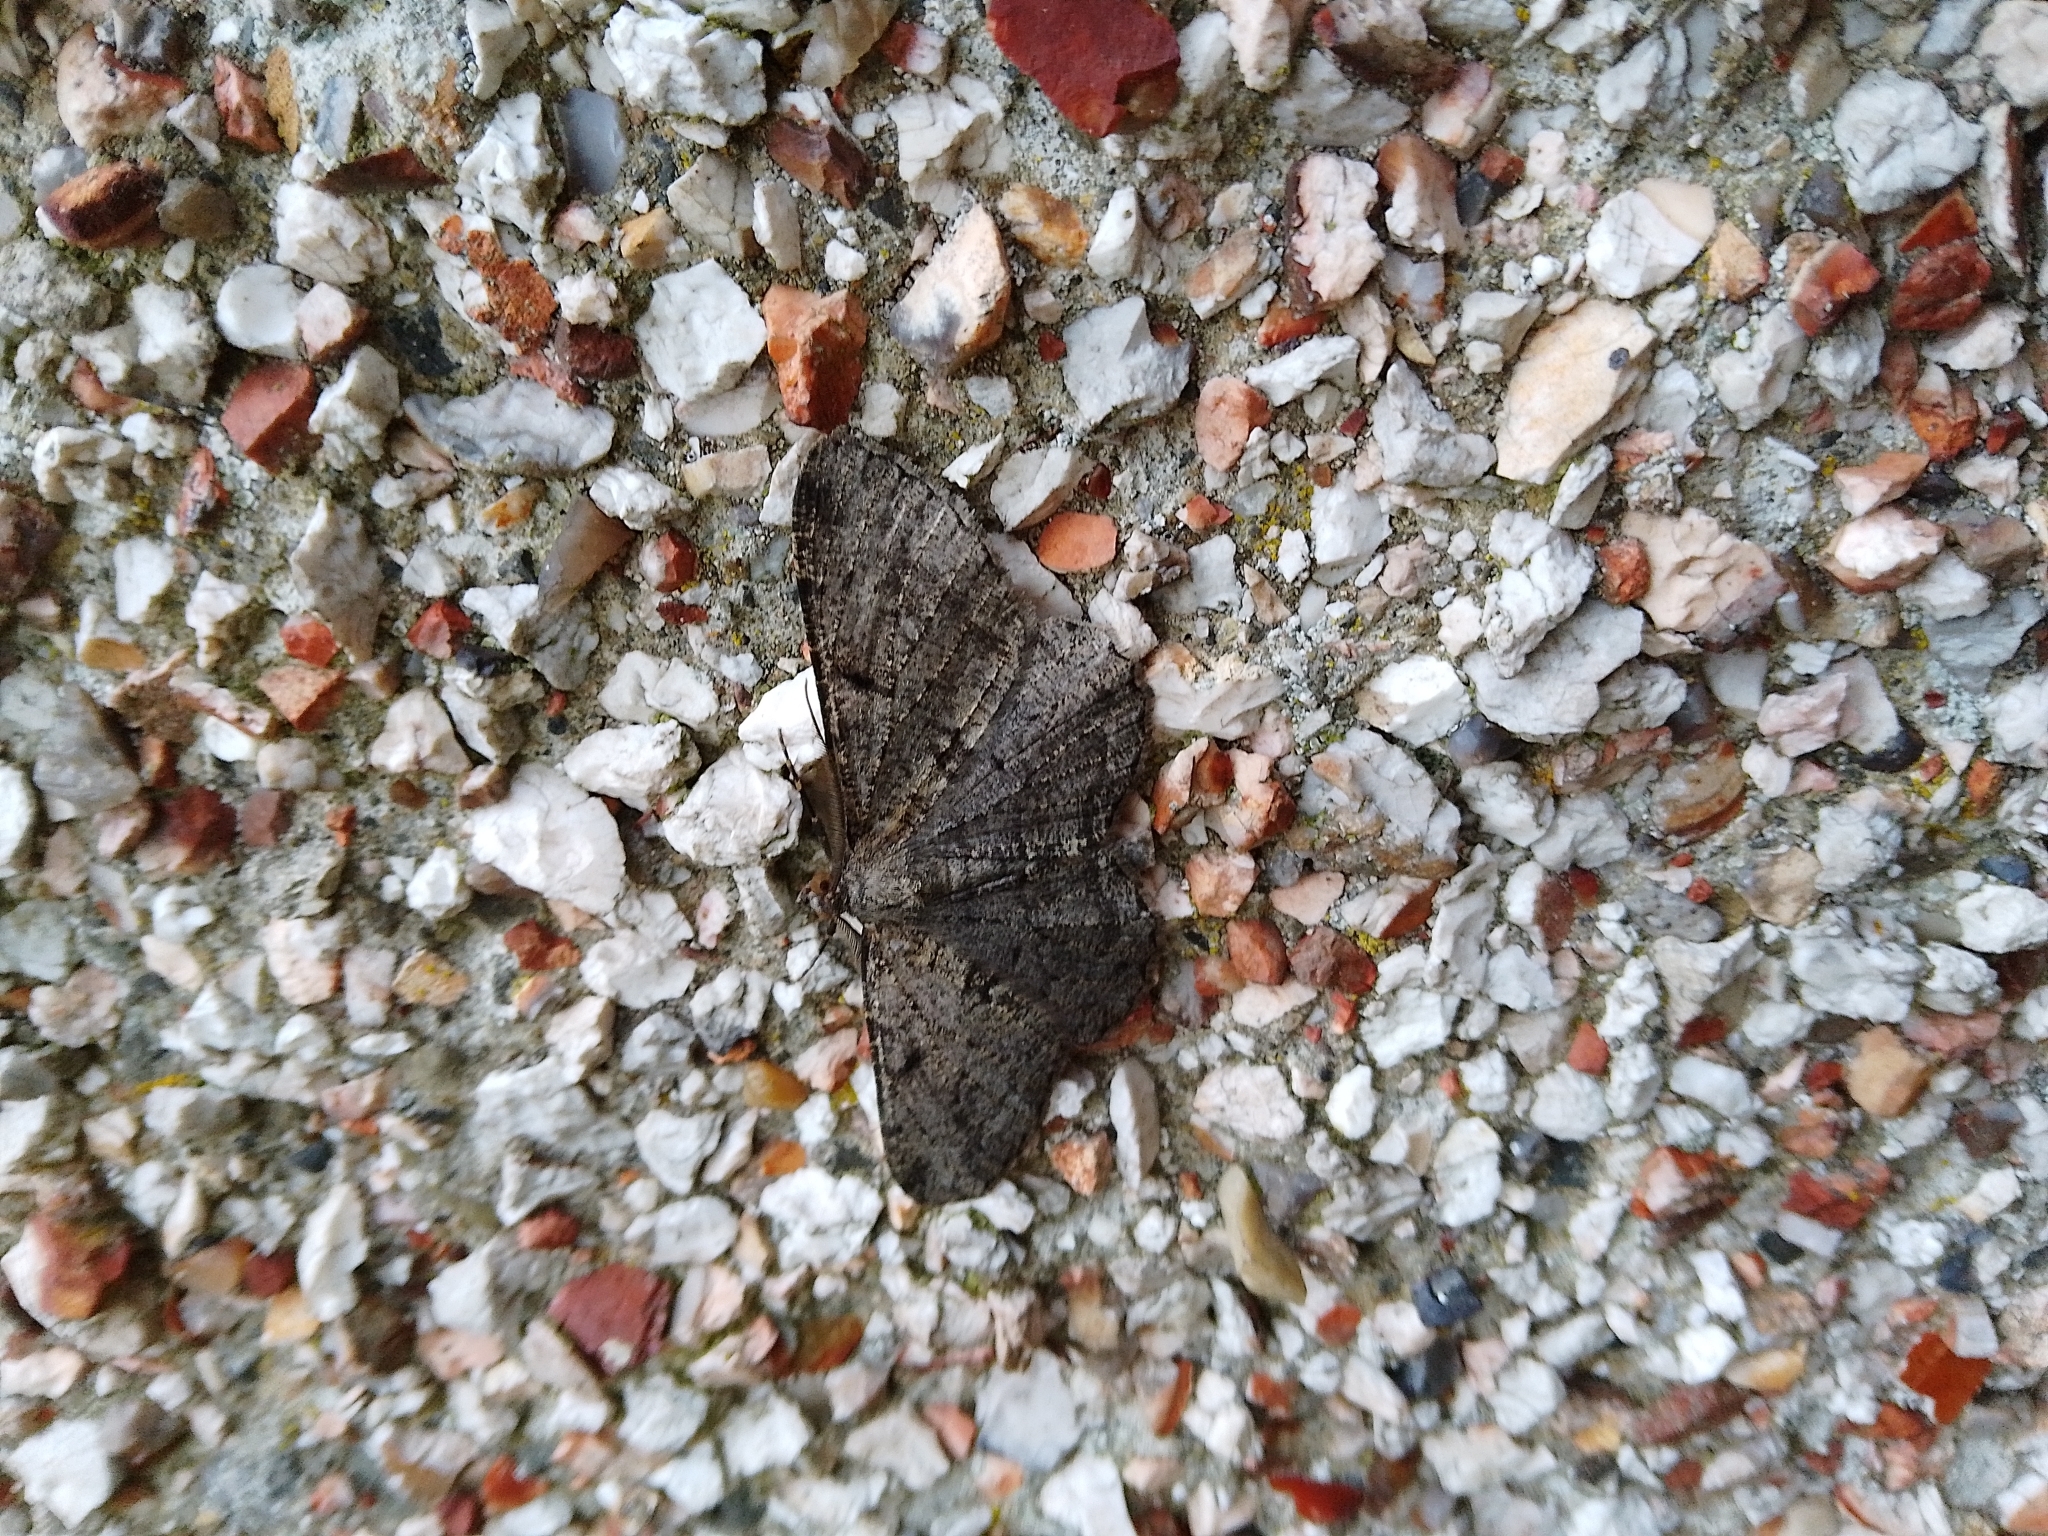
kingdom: Animalia
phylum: Arthropoda
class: Insecta
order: Lepidoptera
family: Geometridae
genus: Peribatodes
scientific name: Peribatodes rhomboidaria
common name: Willow beauty
